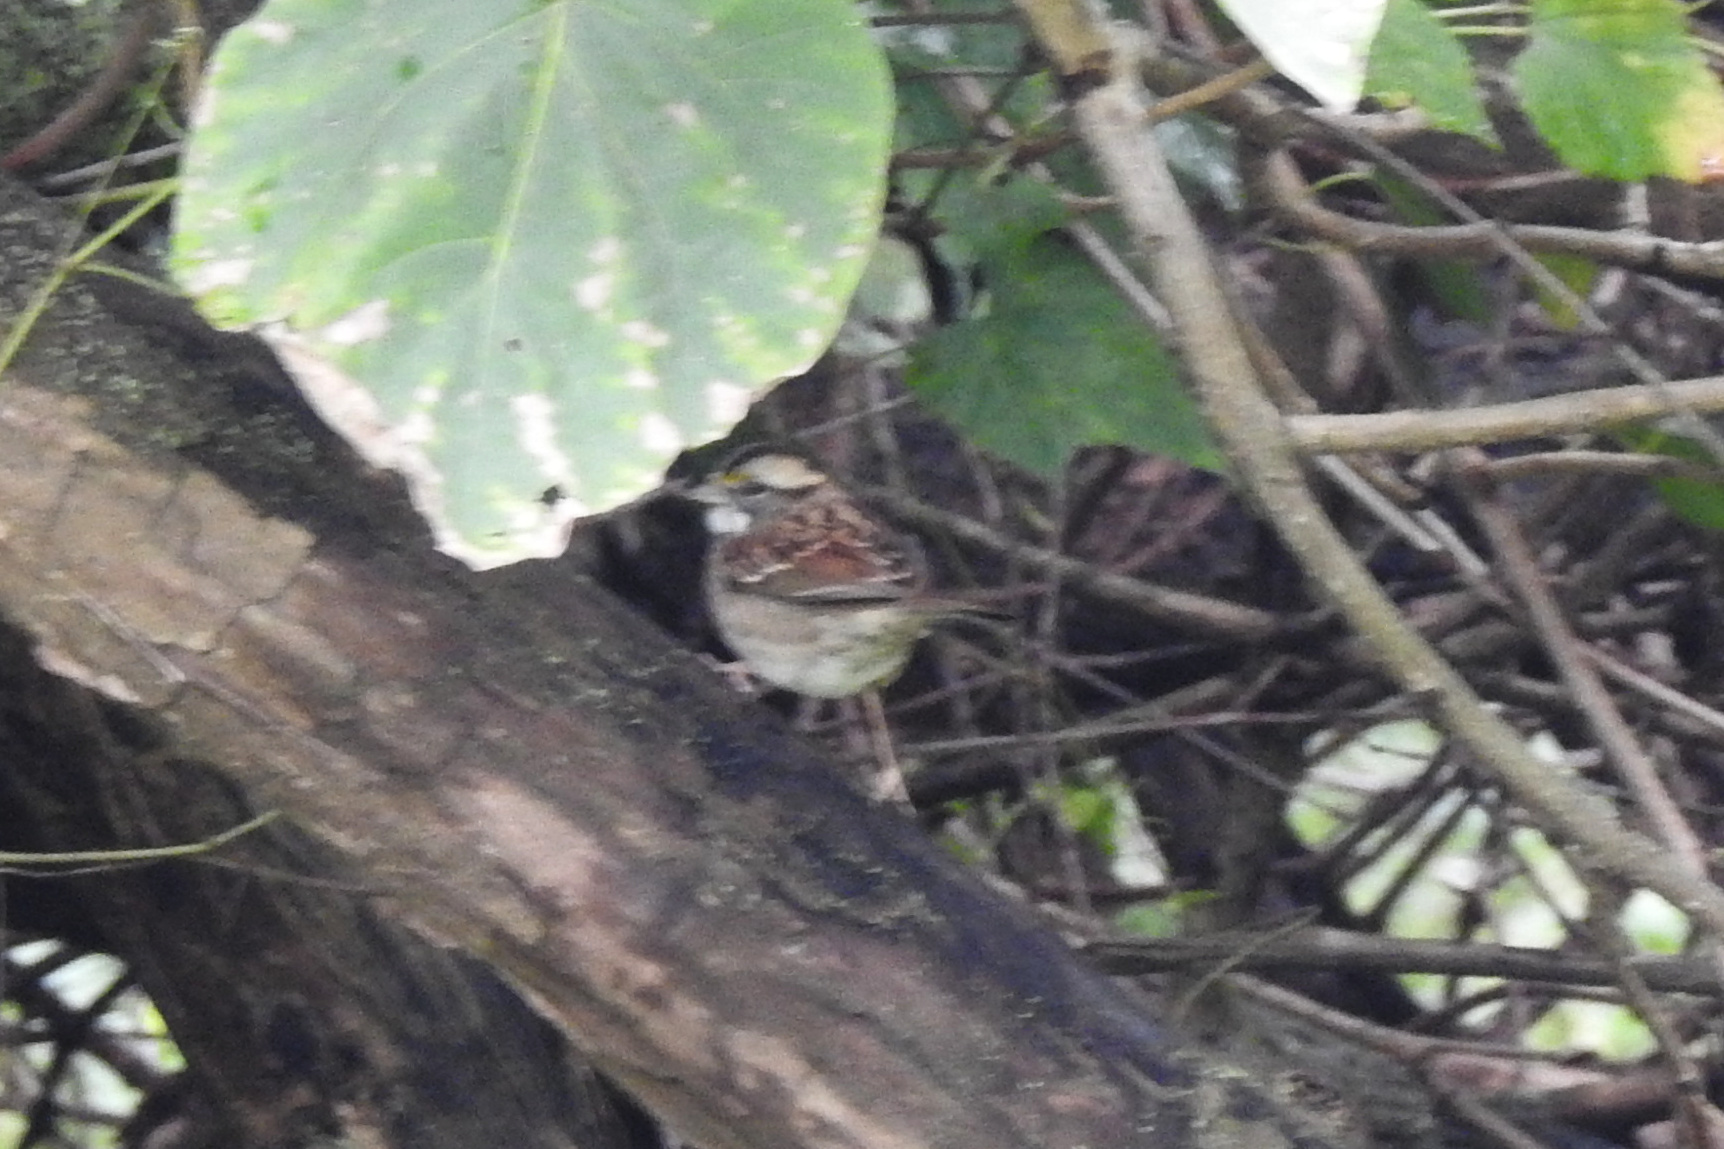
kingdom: Animalia
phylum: Chordata
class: Aves
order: Passeriformes
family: Passerellidae
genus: Zonotrichia
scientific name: Zonotrichia albicollis
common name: White-throated sparrow
